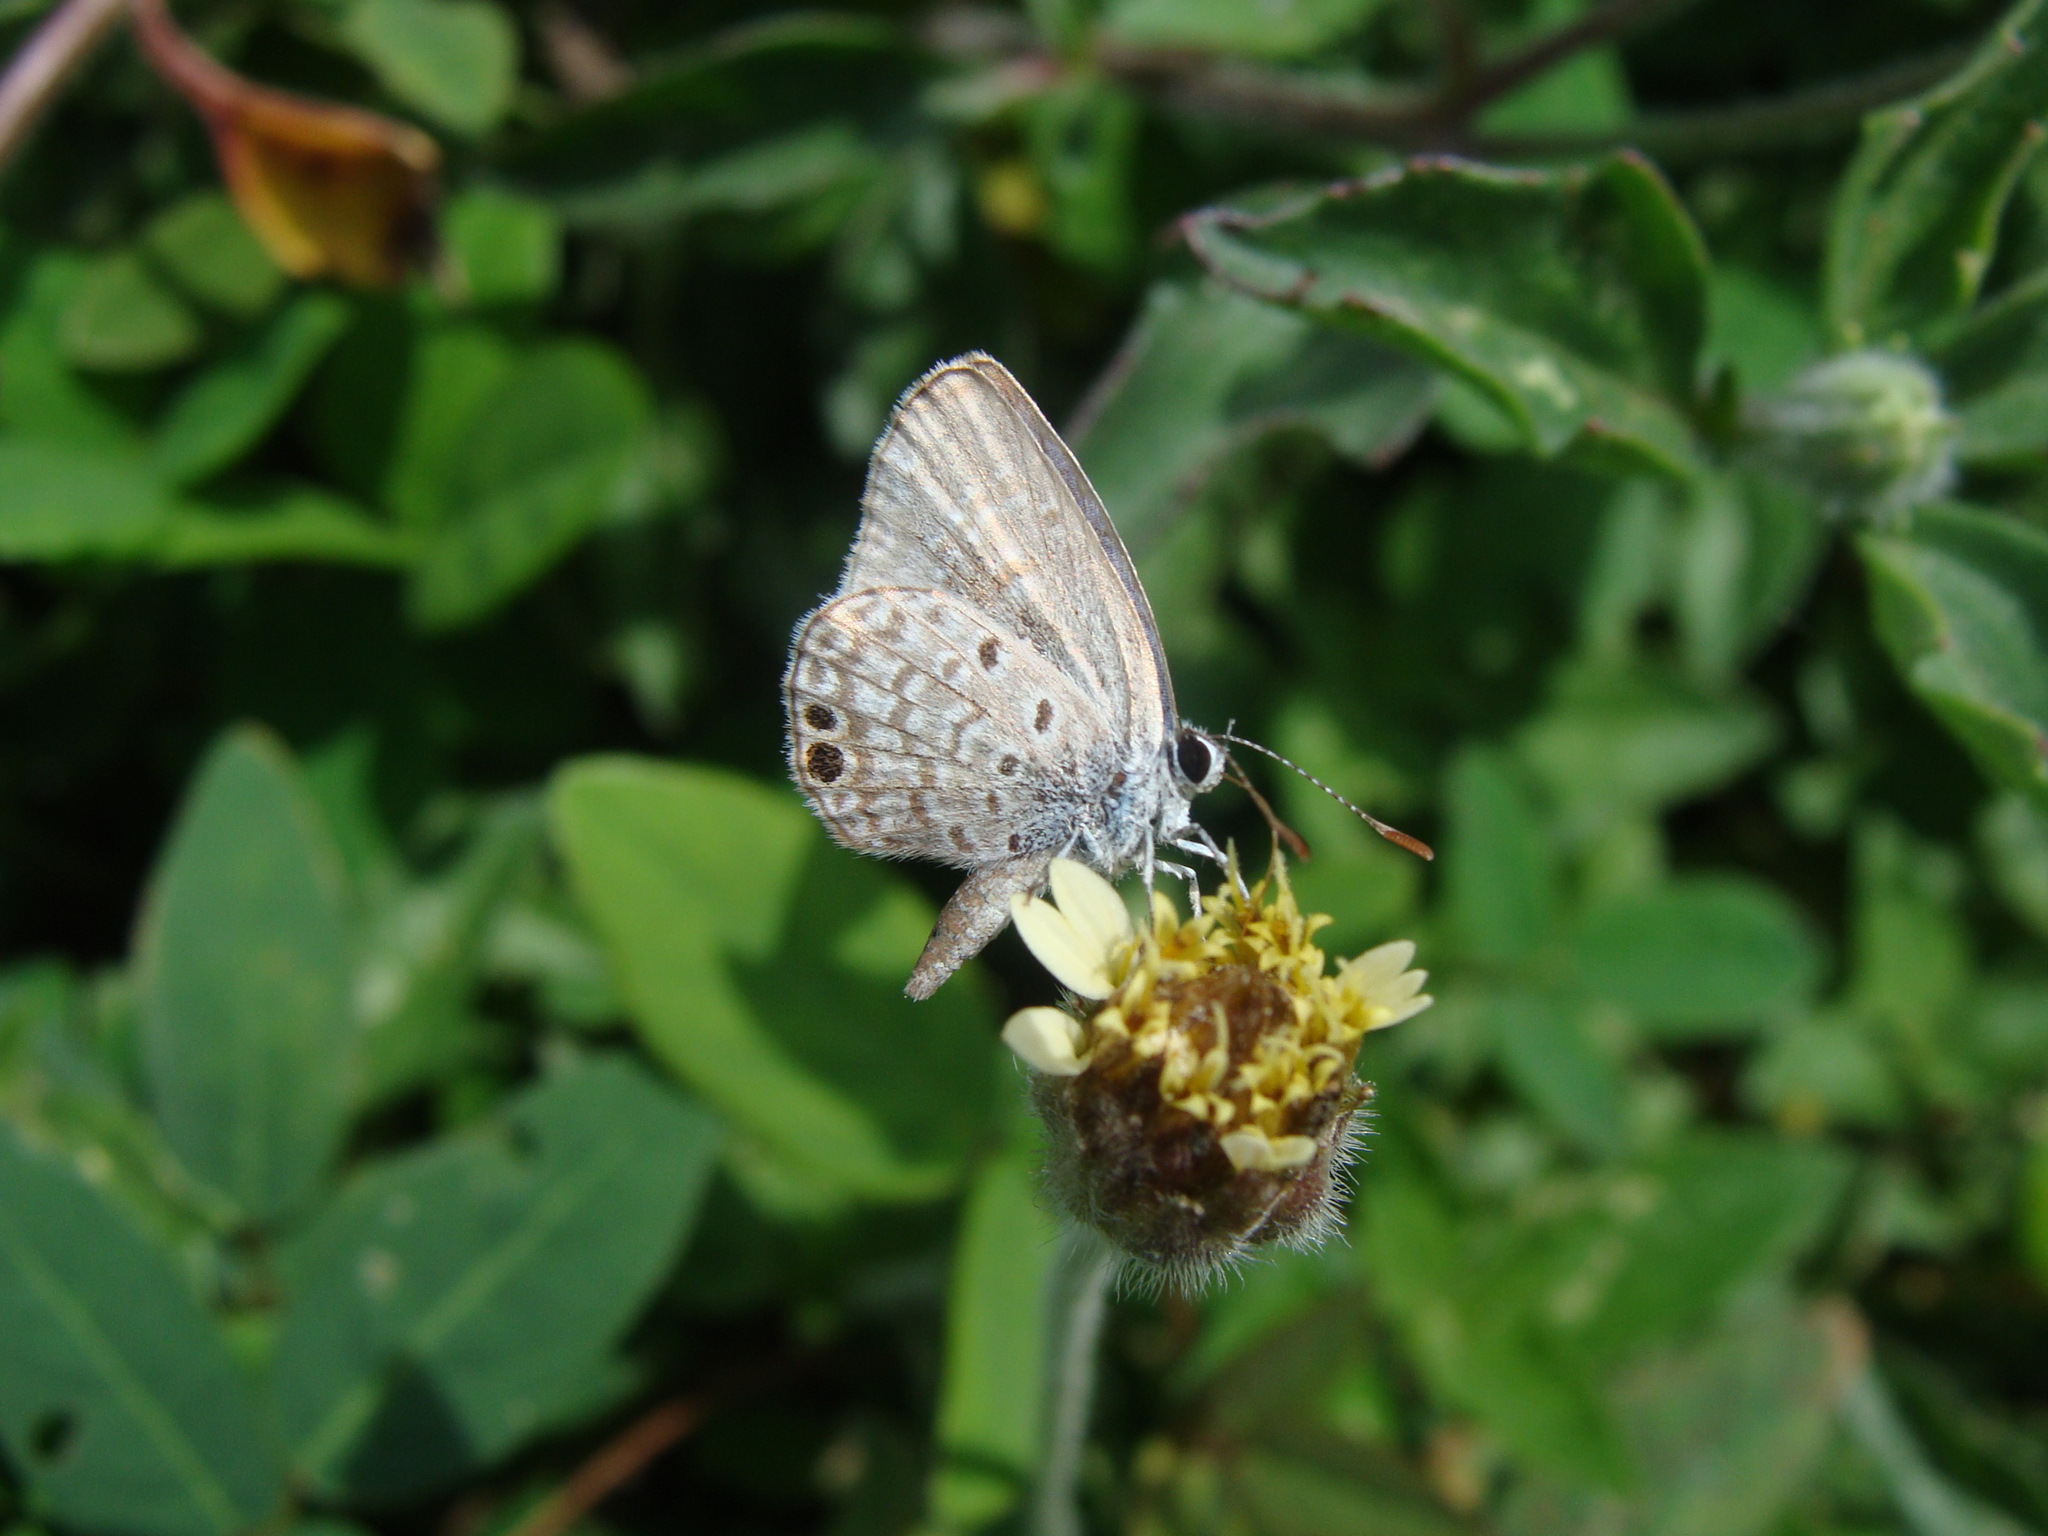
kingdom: Animalia
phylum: Arthropoda
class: Insecta
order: Lepidoptera
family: Lycaenidae
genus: Hemiargus
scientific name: Hemiargus ceraunus
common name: Ceraunus blue
